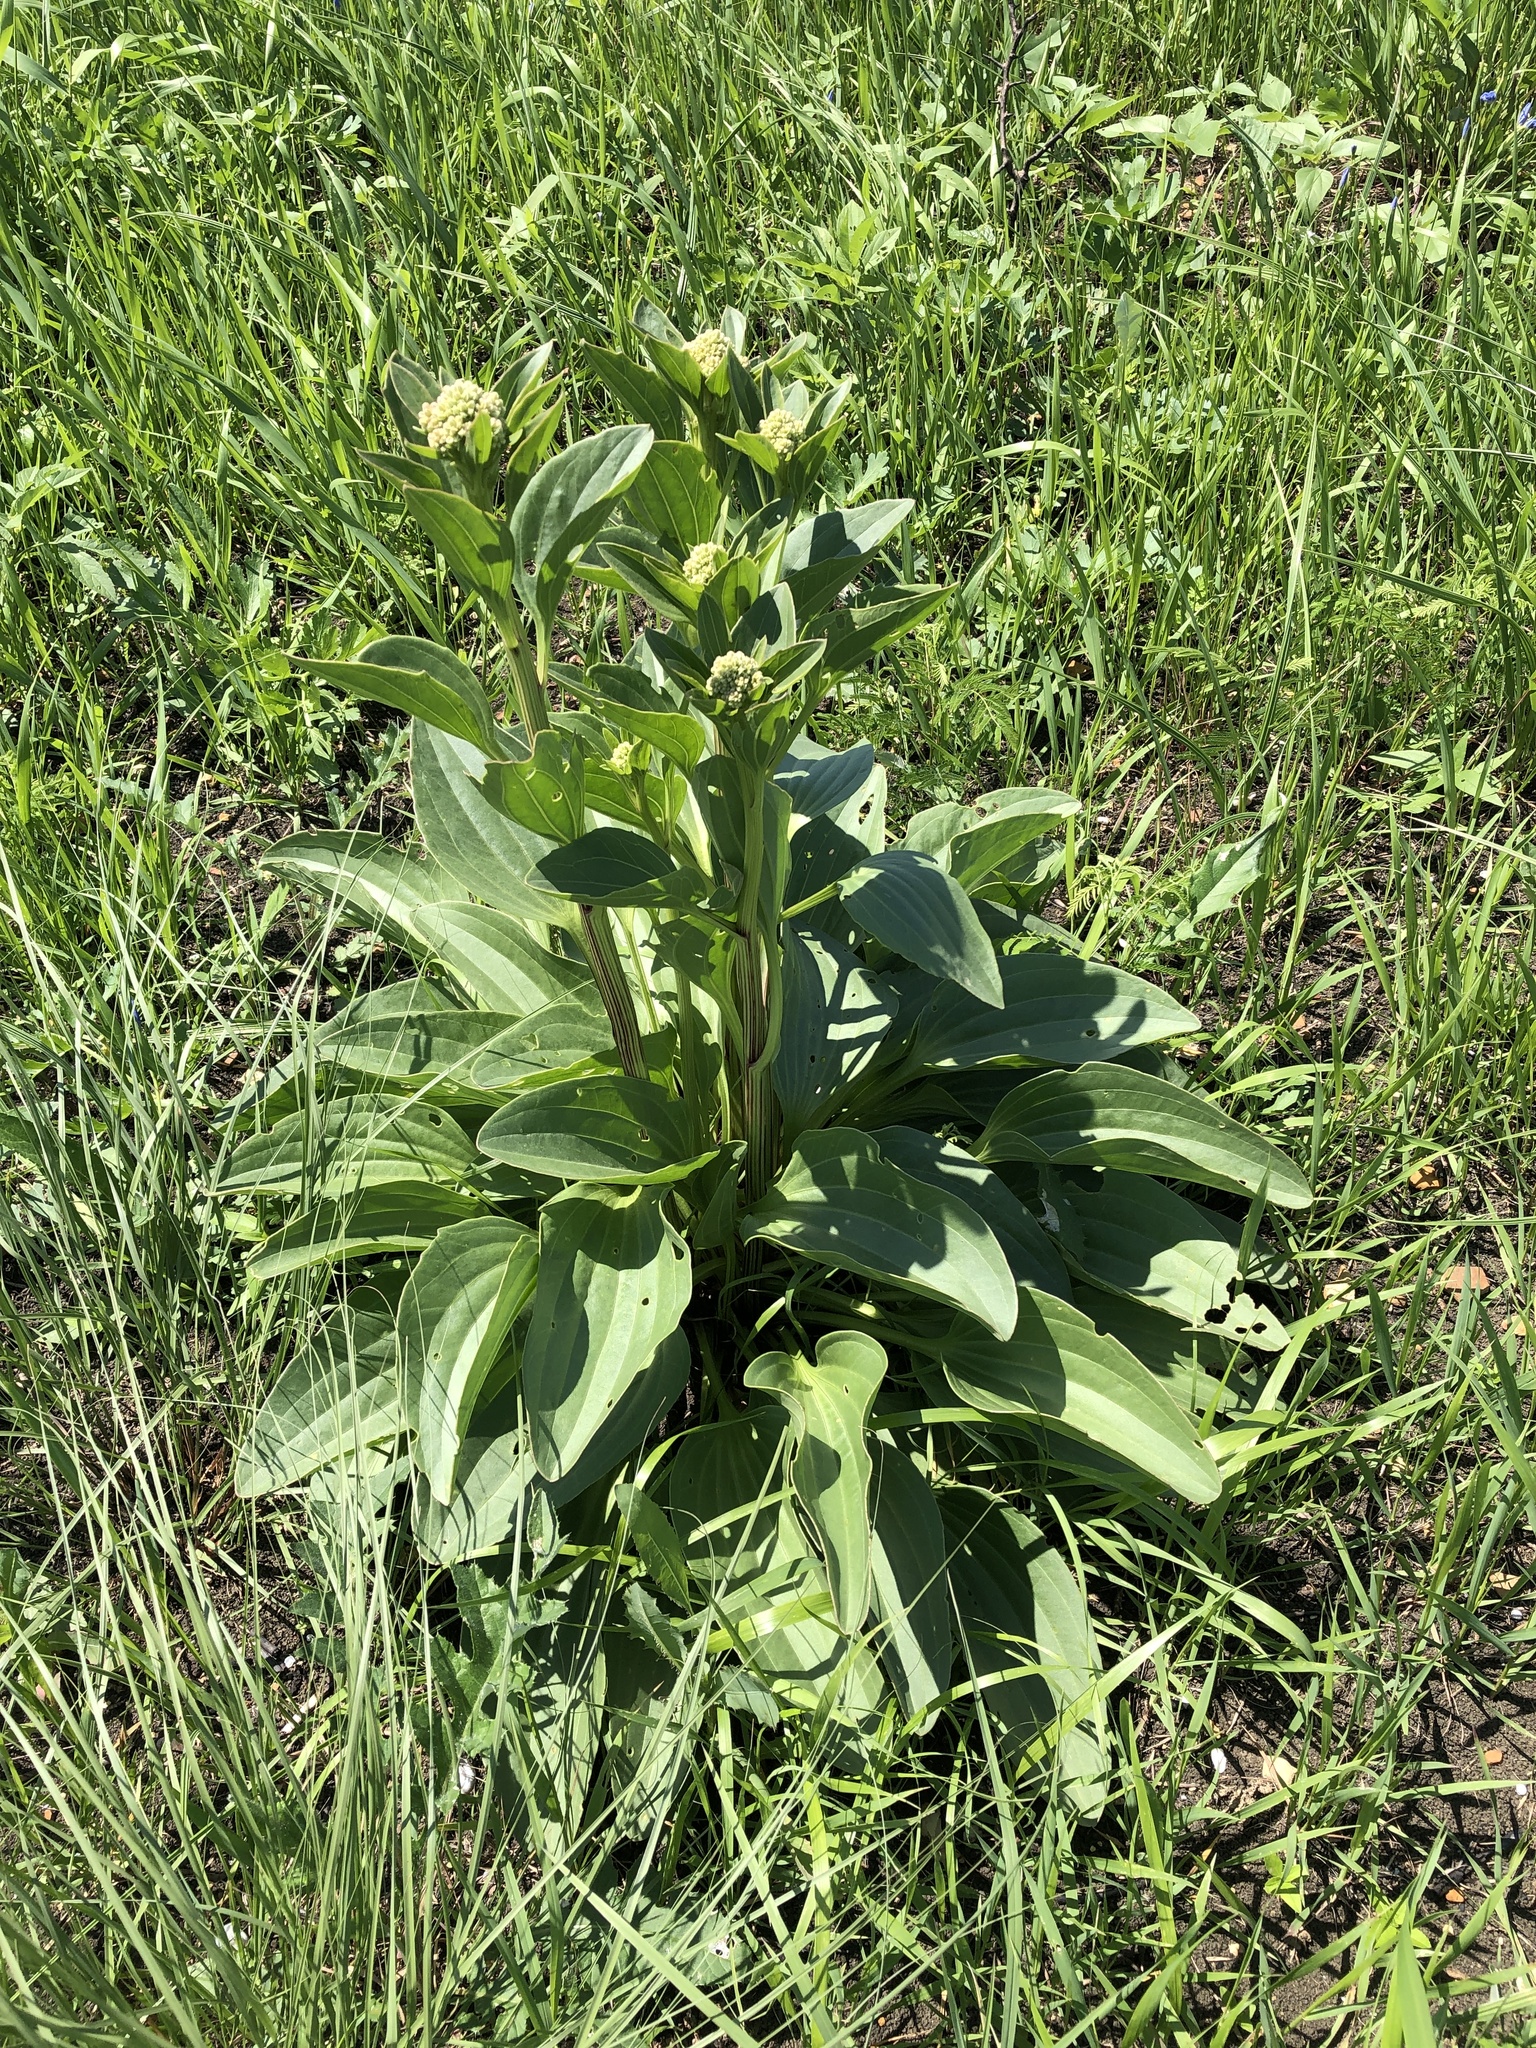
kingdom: Plantae
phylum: Tracheophyta
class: Magnoliopsida
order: Asterales
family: Asteraceae
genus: Arnoglossum
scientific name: Arnoglossum plantagineum
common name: Groove-stemmed indian-plantain
